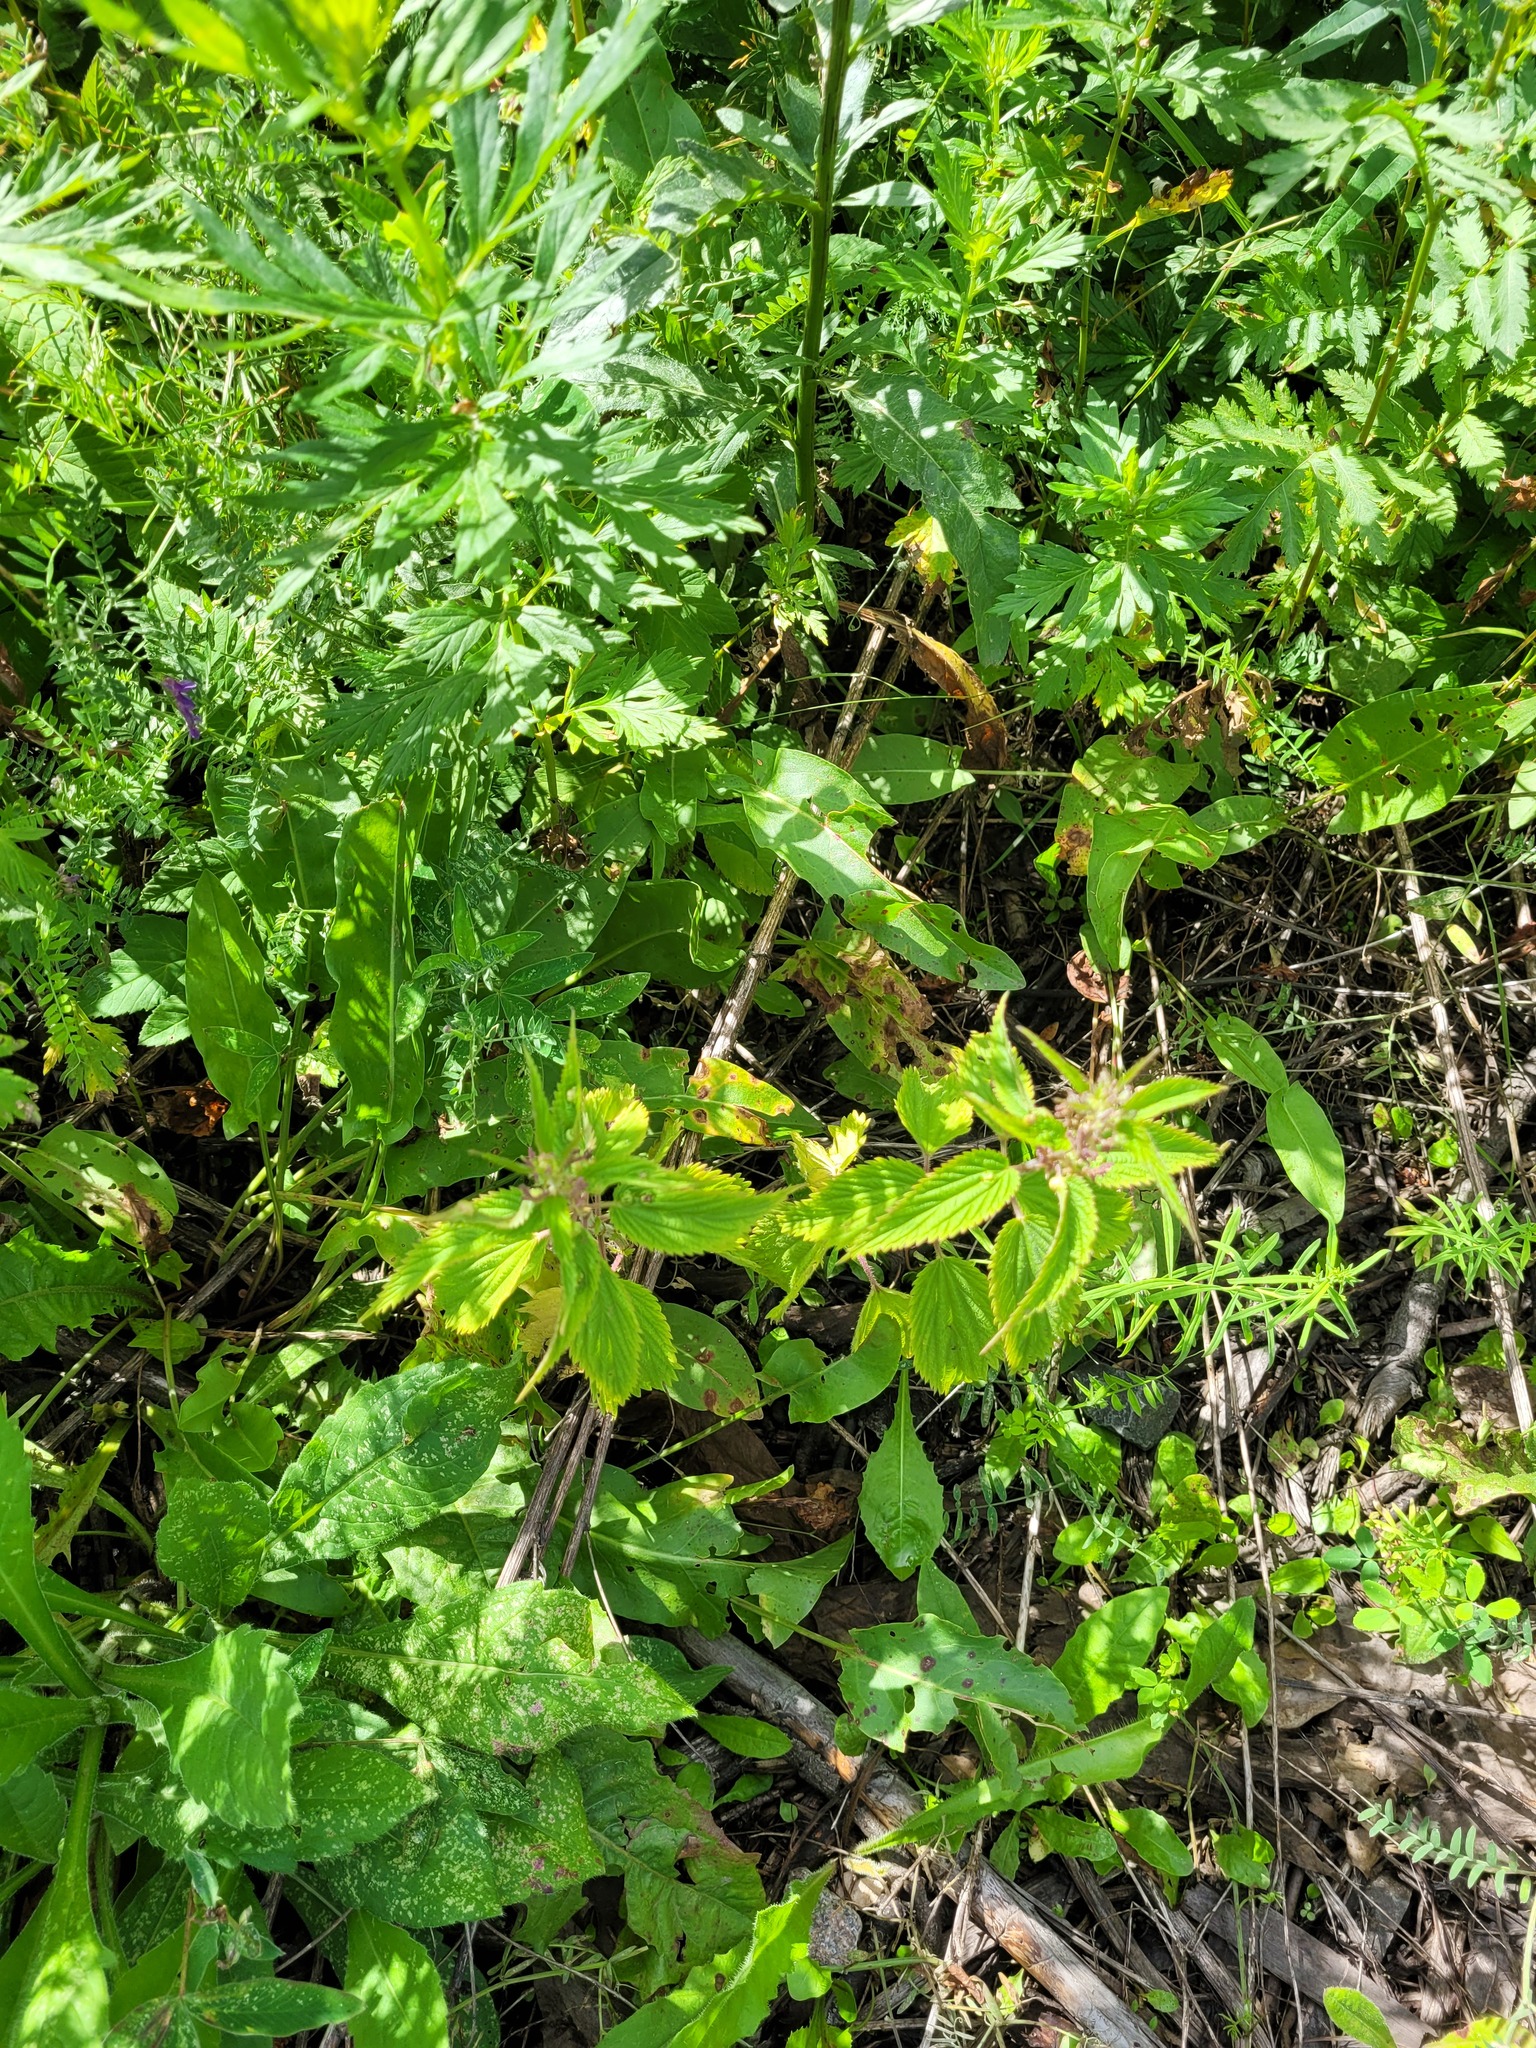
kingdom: Plantae
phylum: Tracheophyta
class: Magnoliopsida
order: Rosales
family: Urticaceae
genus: Urtica
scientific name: Urtica dioica
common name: Common nettle
